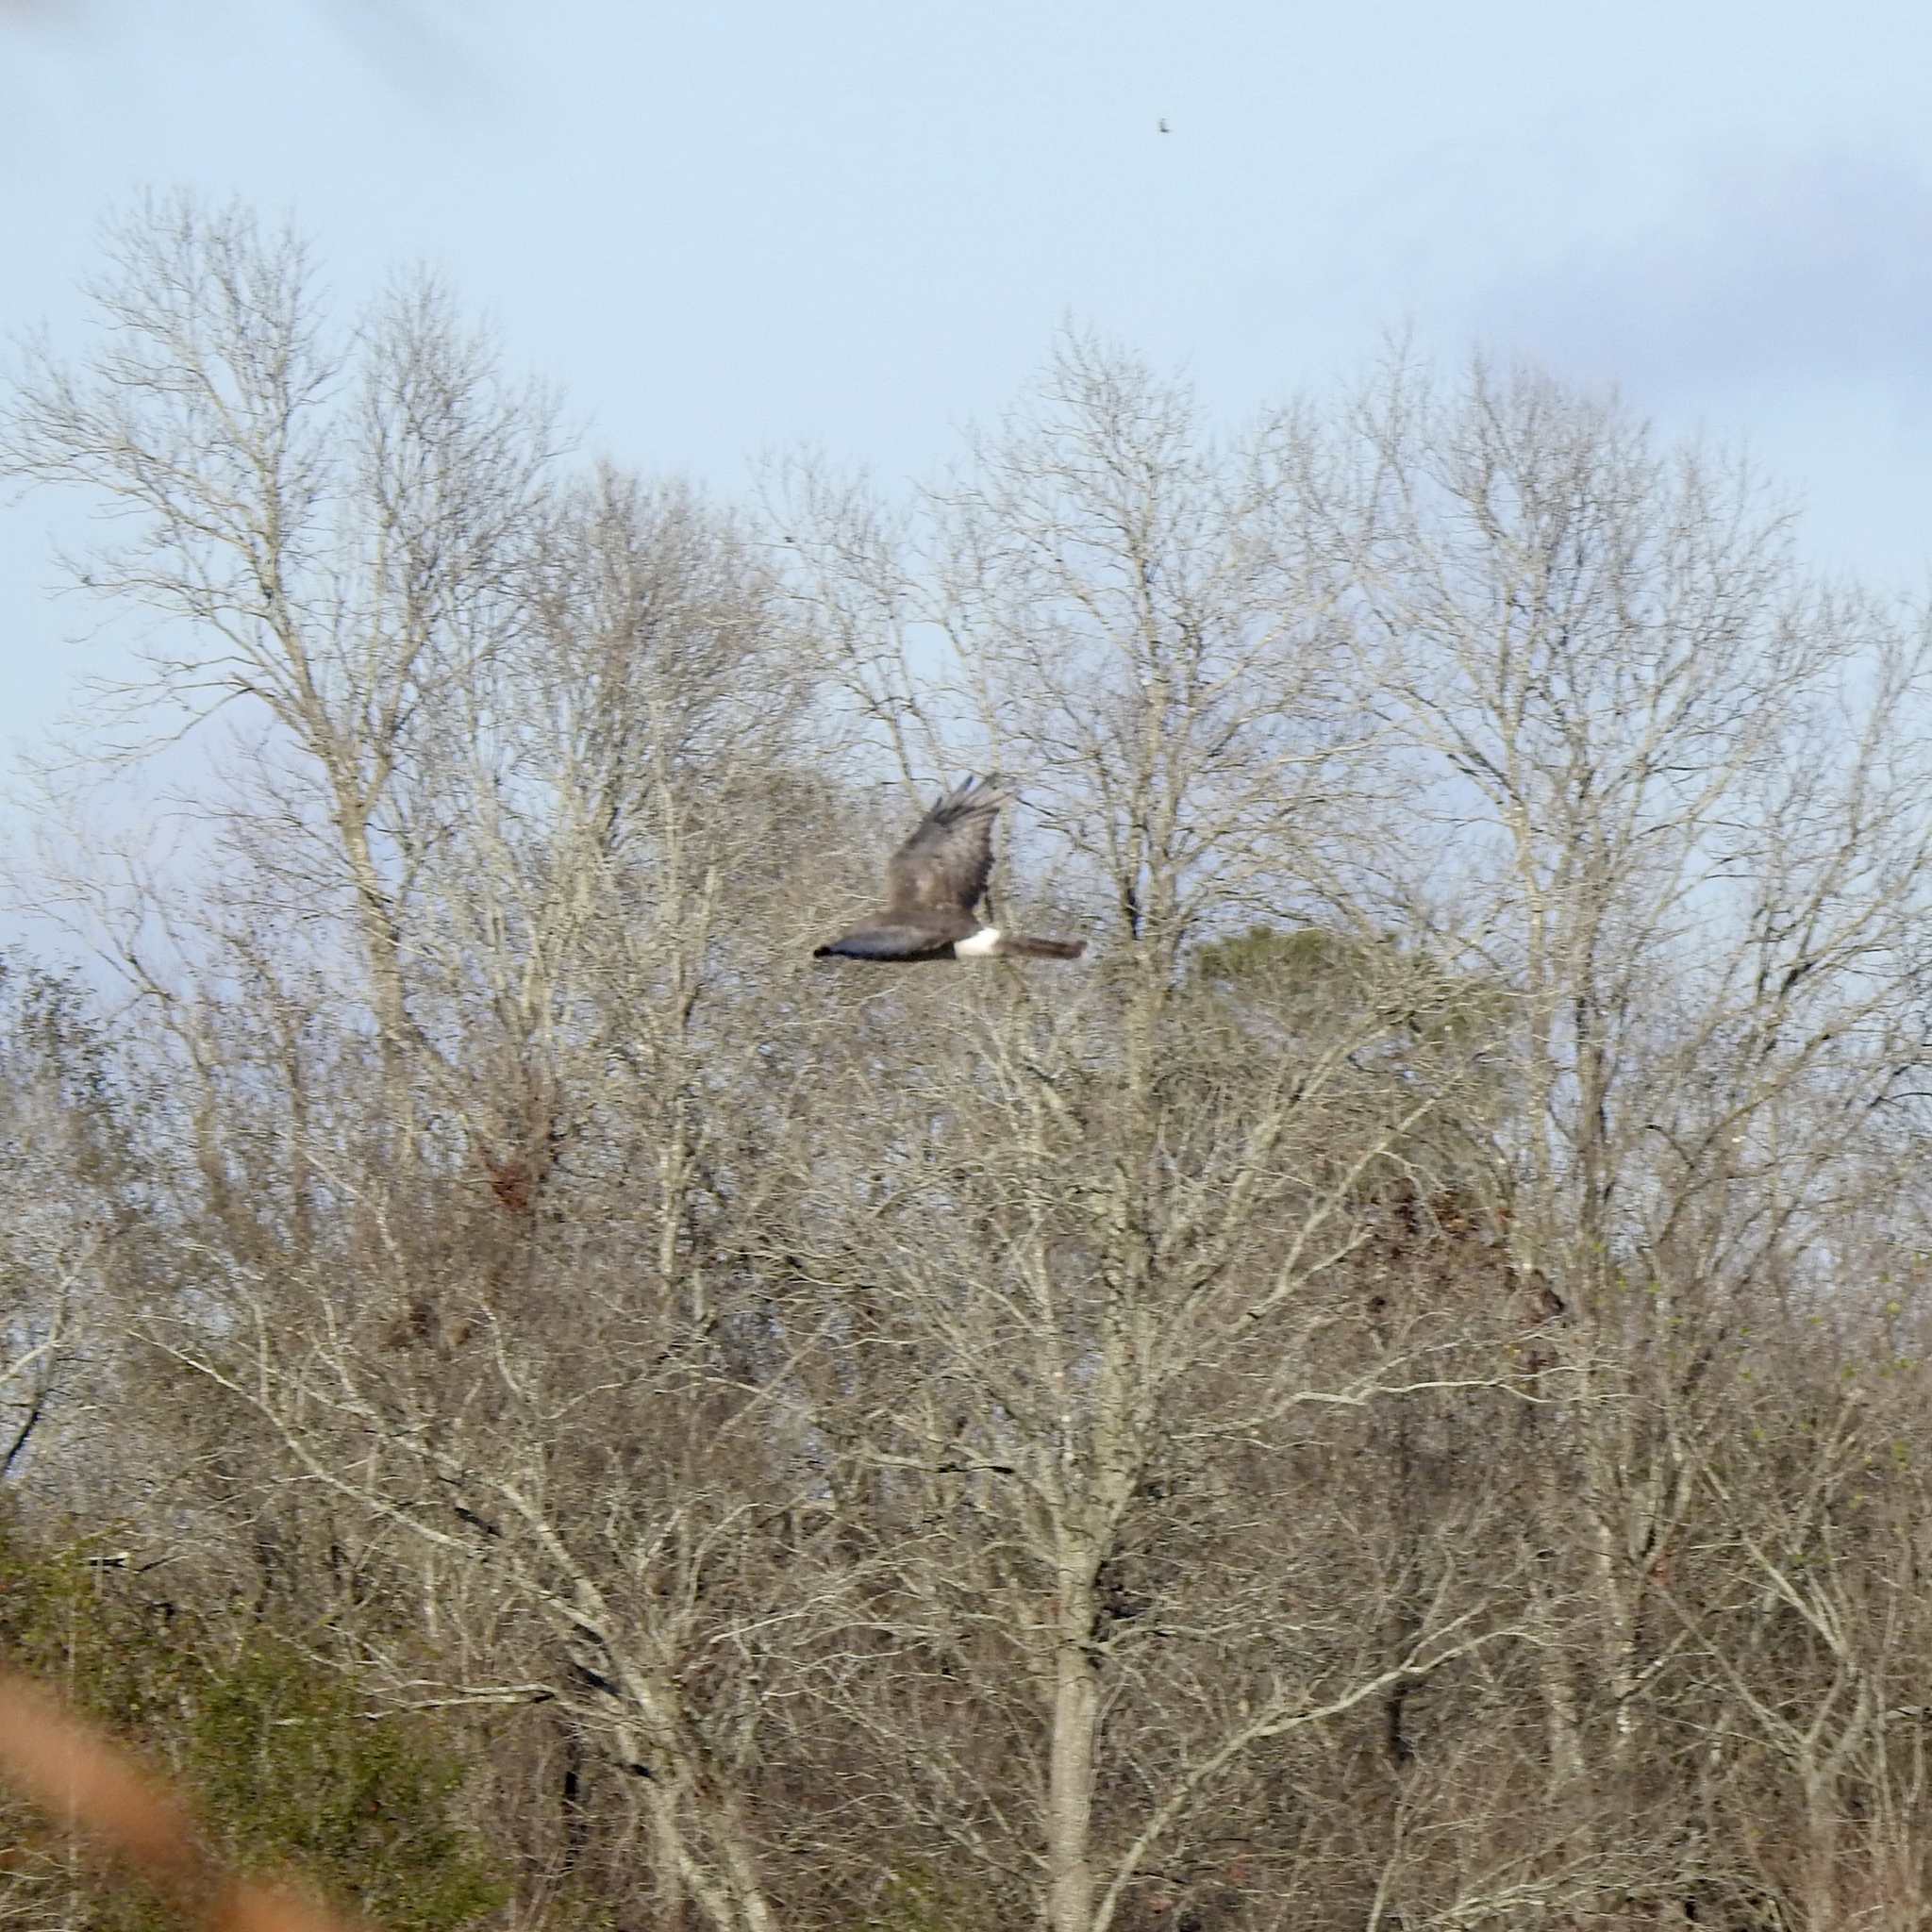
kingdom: Animalia
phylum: Chordata
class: Aves
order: Accipitriformes
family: Accipitridae
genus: Circus
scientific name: Circus cyaneus
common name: Hen harrier
